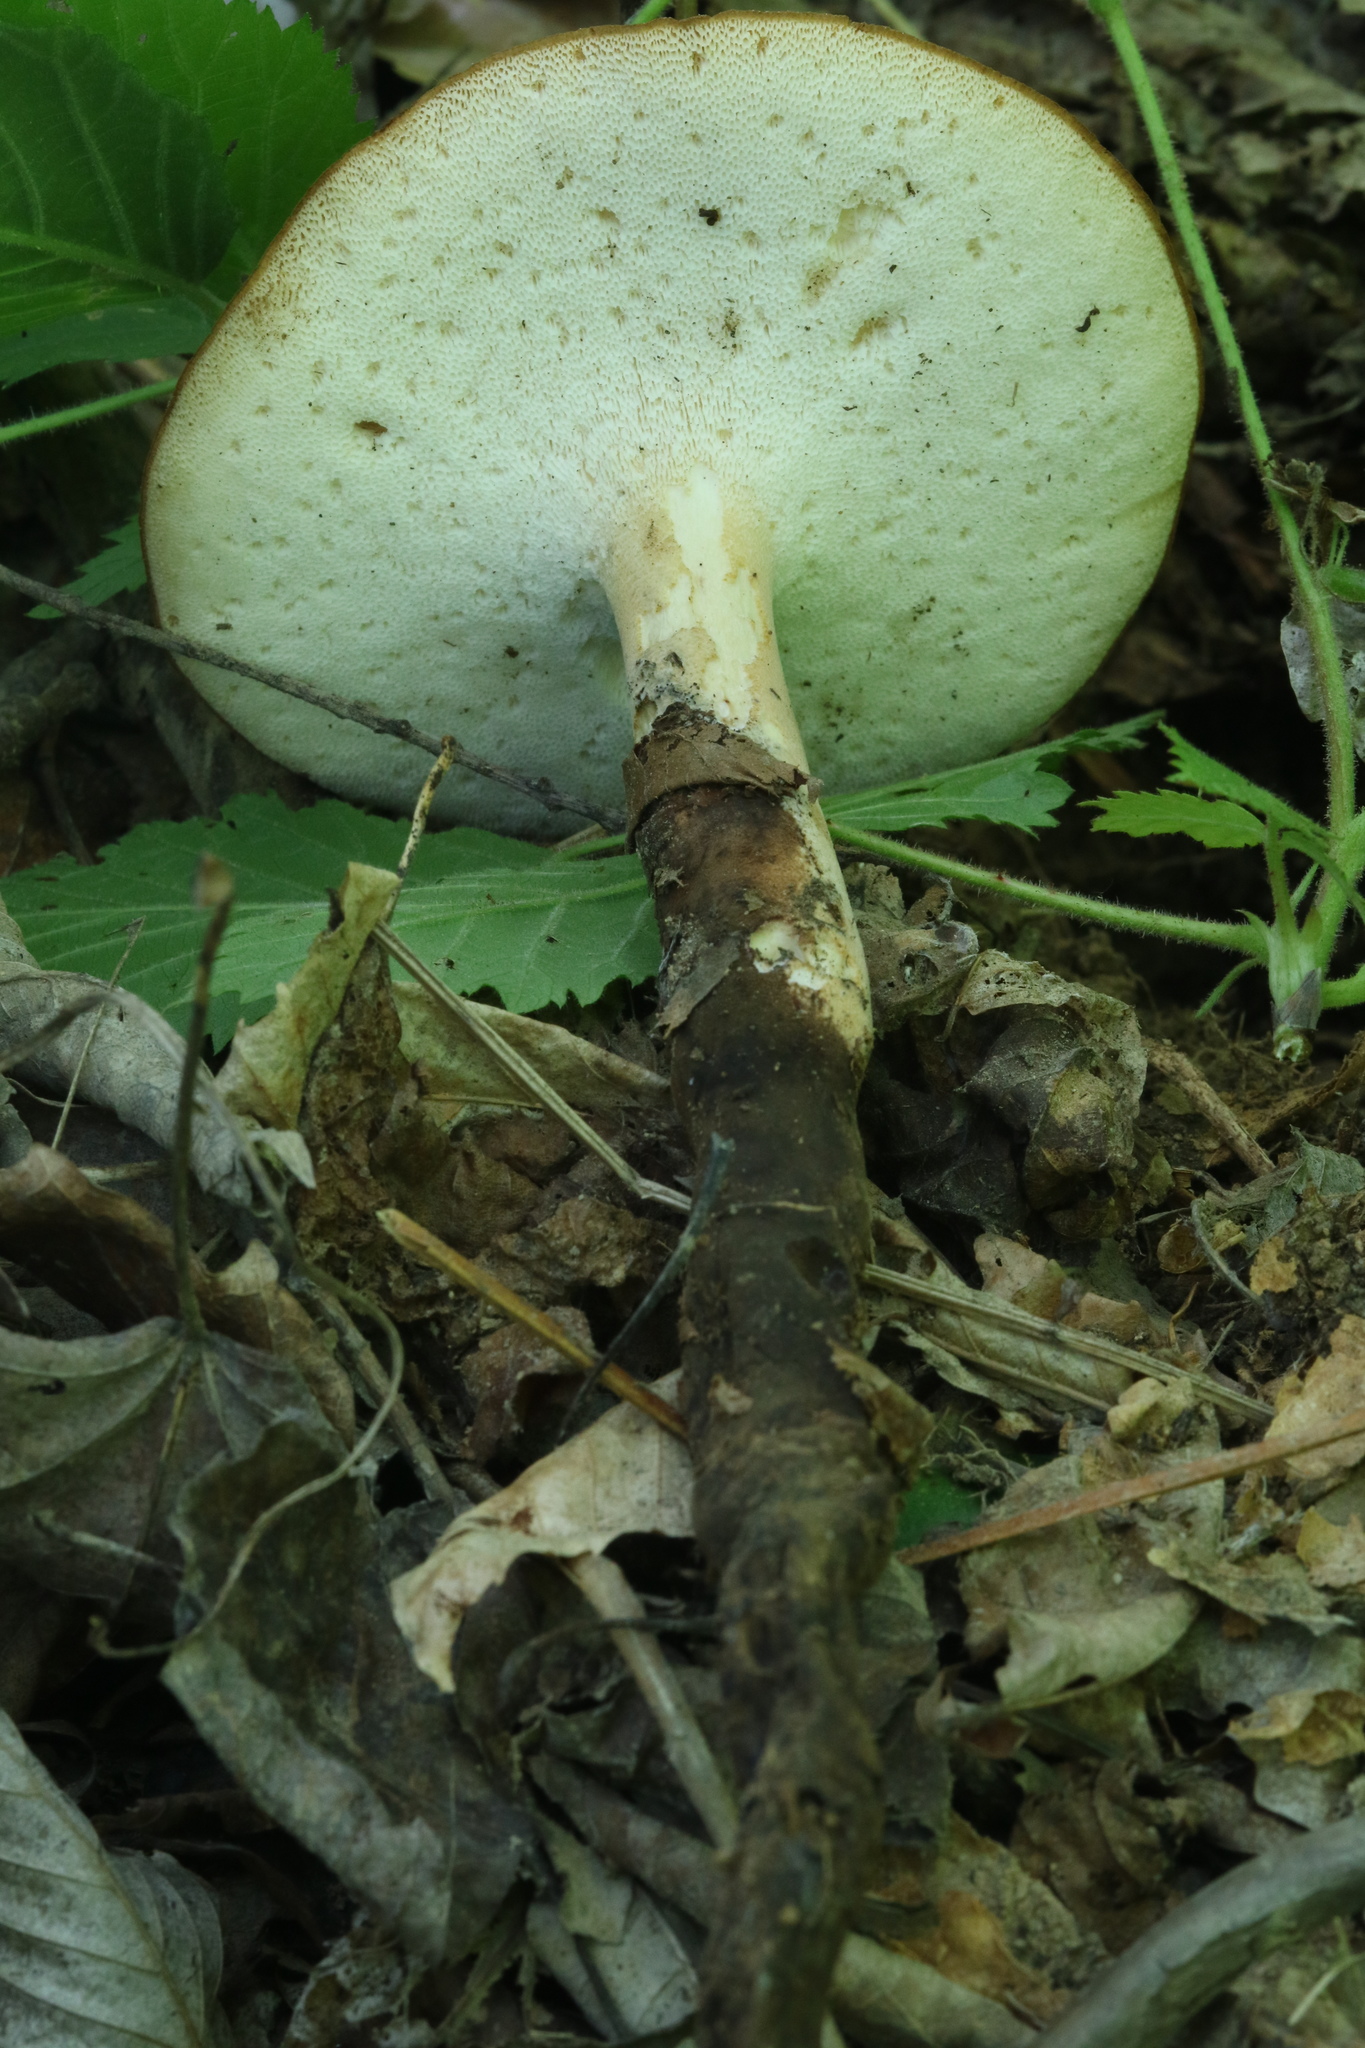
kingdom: Fungi
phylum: Basidiomycota
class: Agaricomycetes
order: Polyporales
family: Polyporaceae
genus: Polyporus
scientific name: Polyporus radicatus
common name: Rooting polypore
